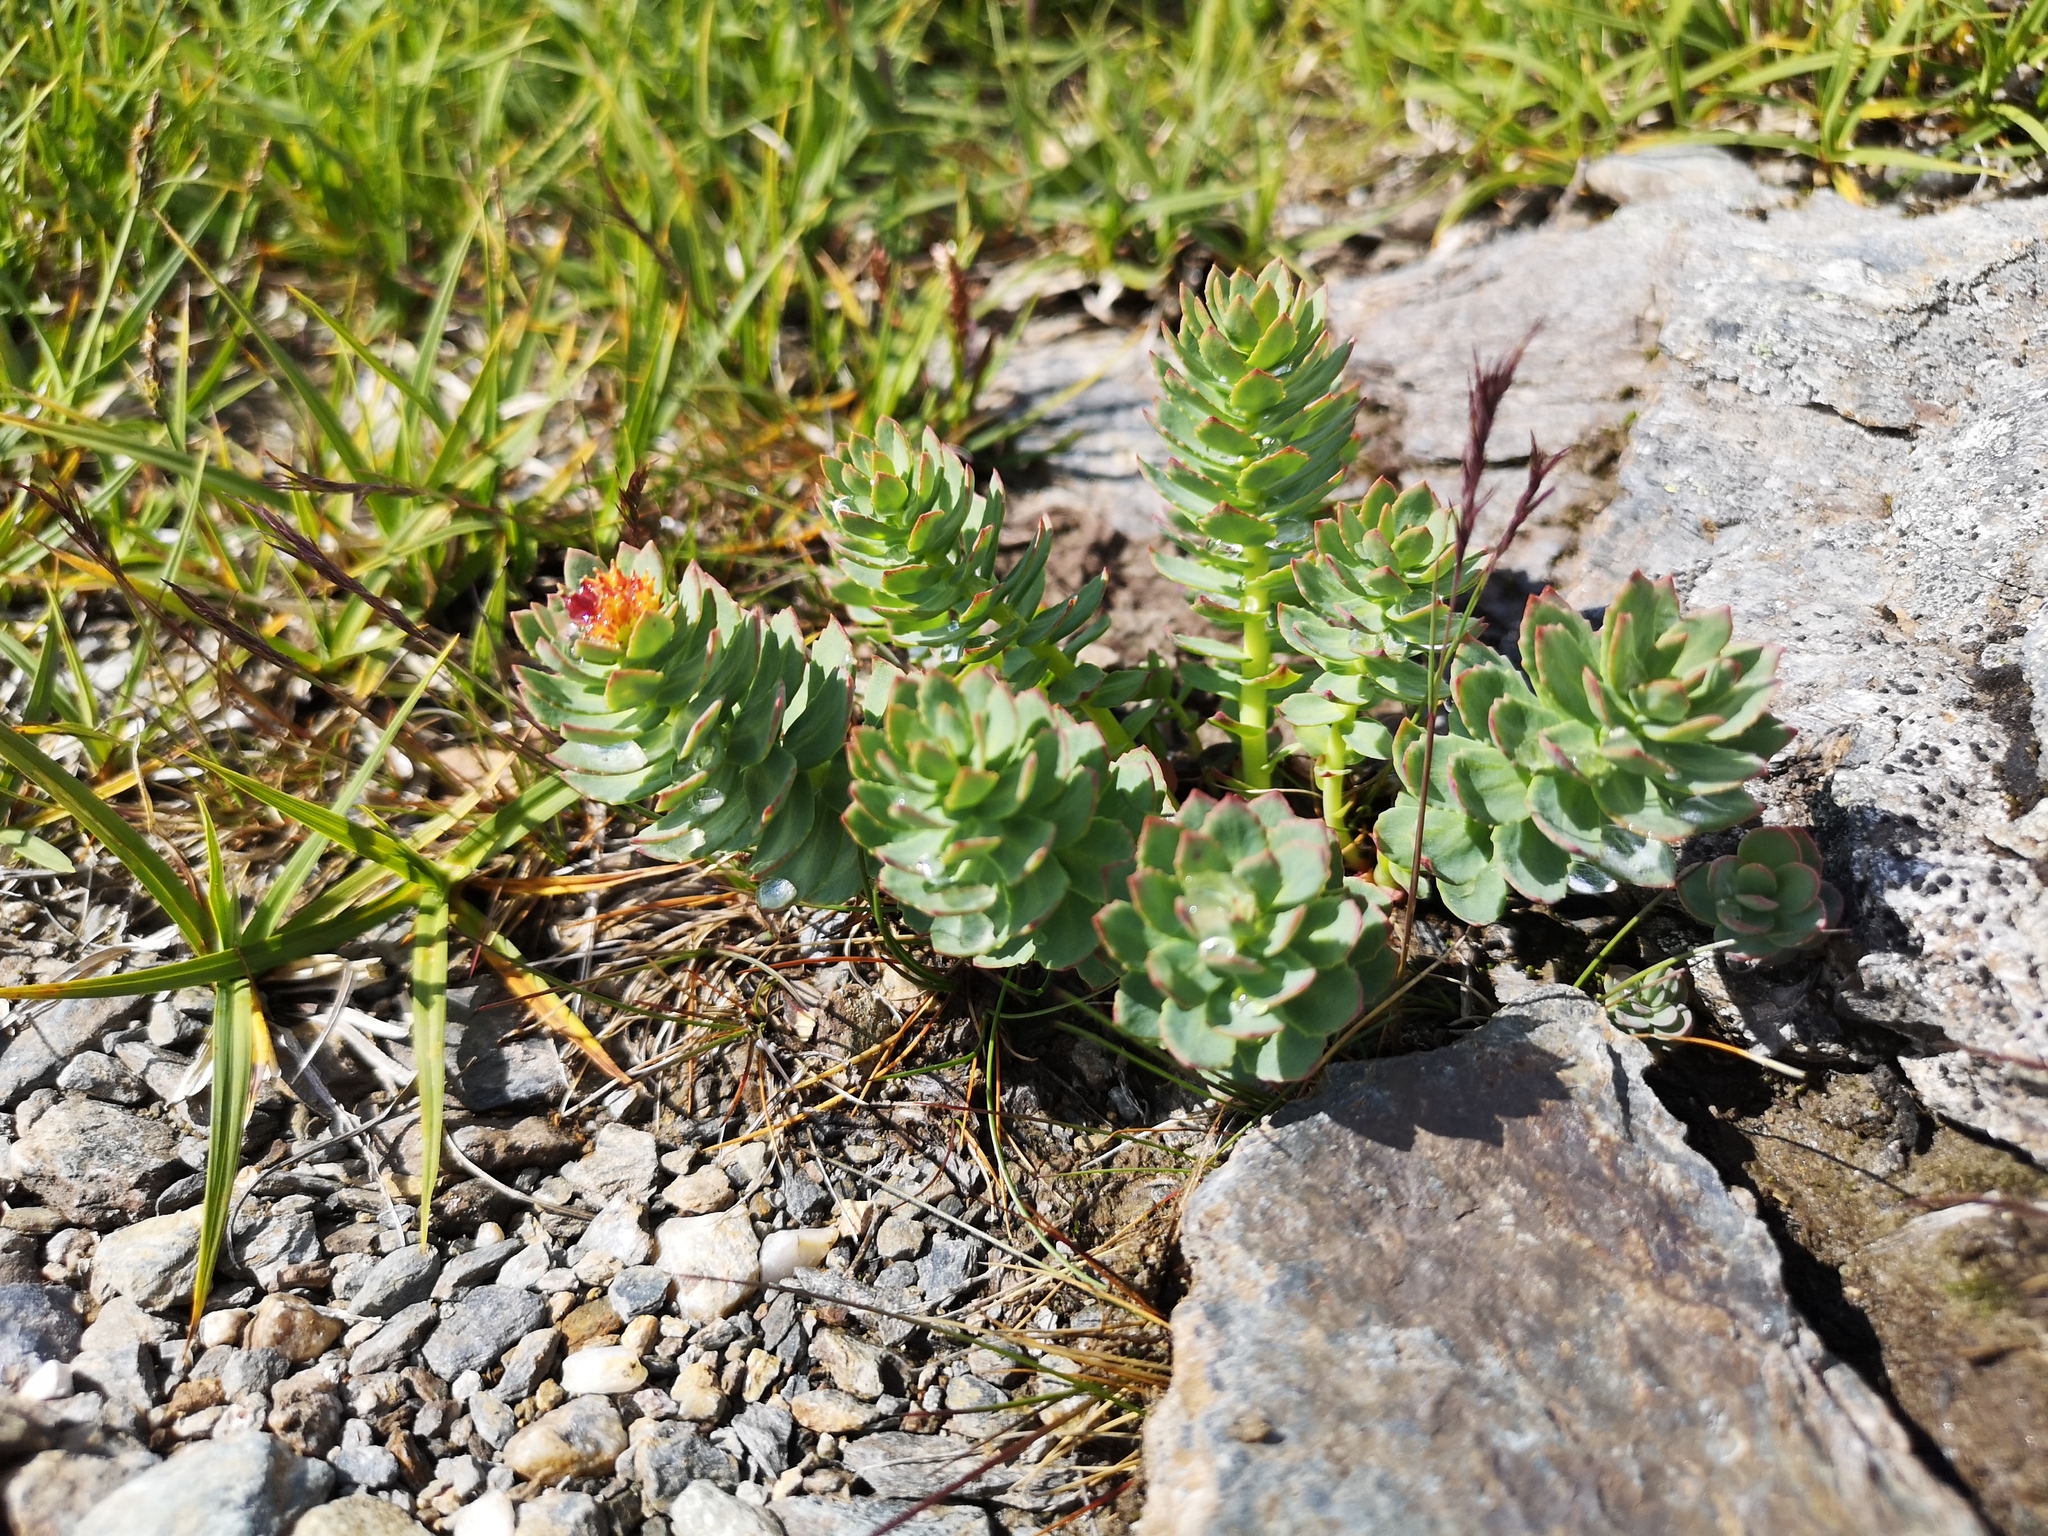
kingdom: Plantae
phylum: Tracheophyta
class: Magnoliopsida
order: Saxifragales
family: Crassulaceae
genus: Rhodiola
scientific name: Rhodiola rosea
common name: Roseroot
